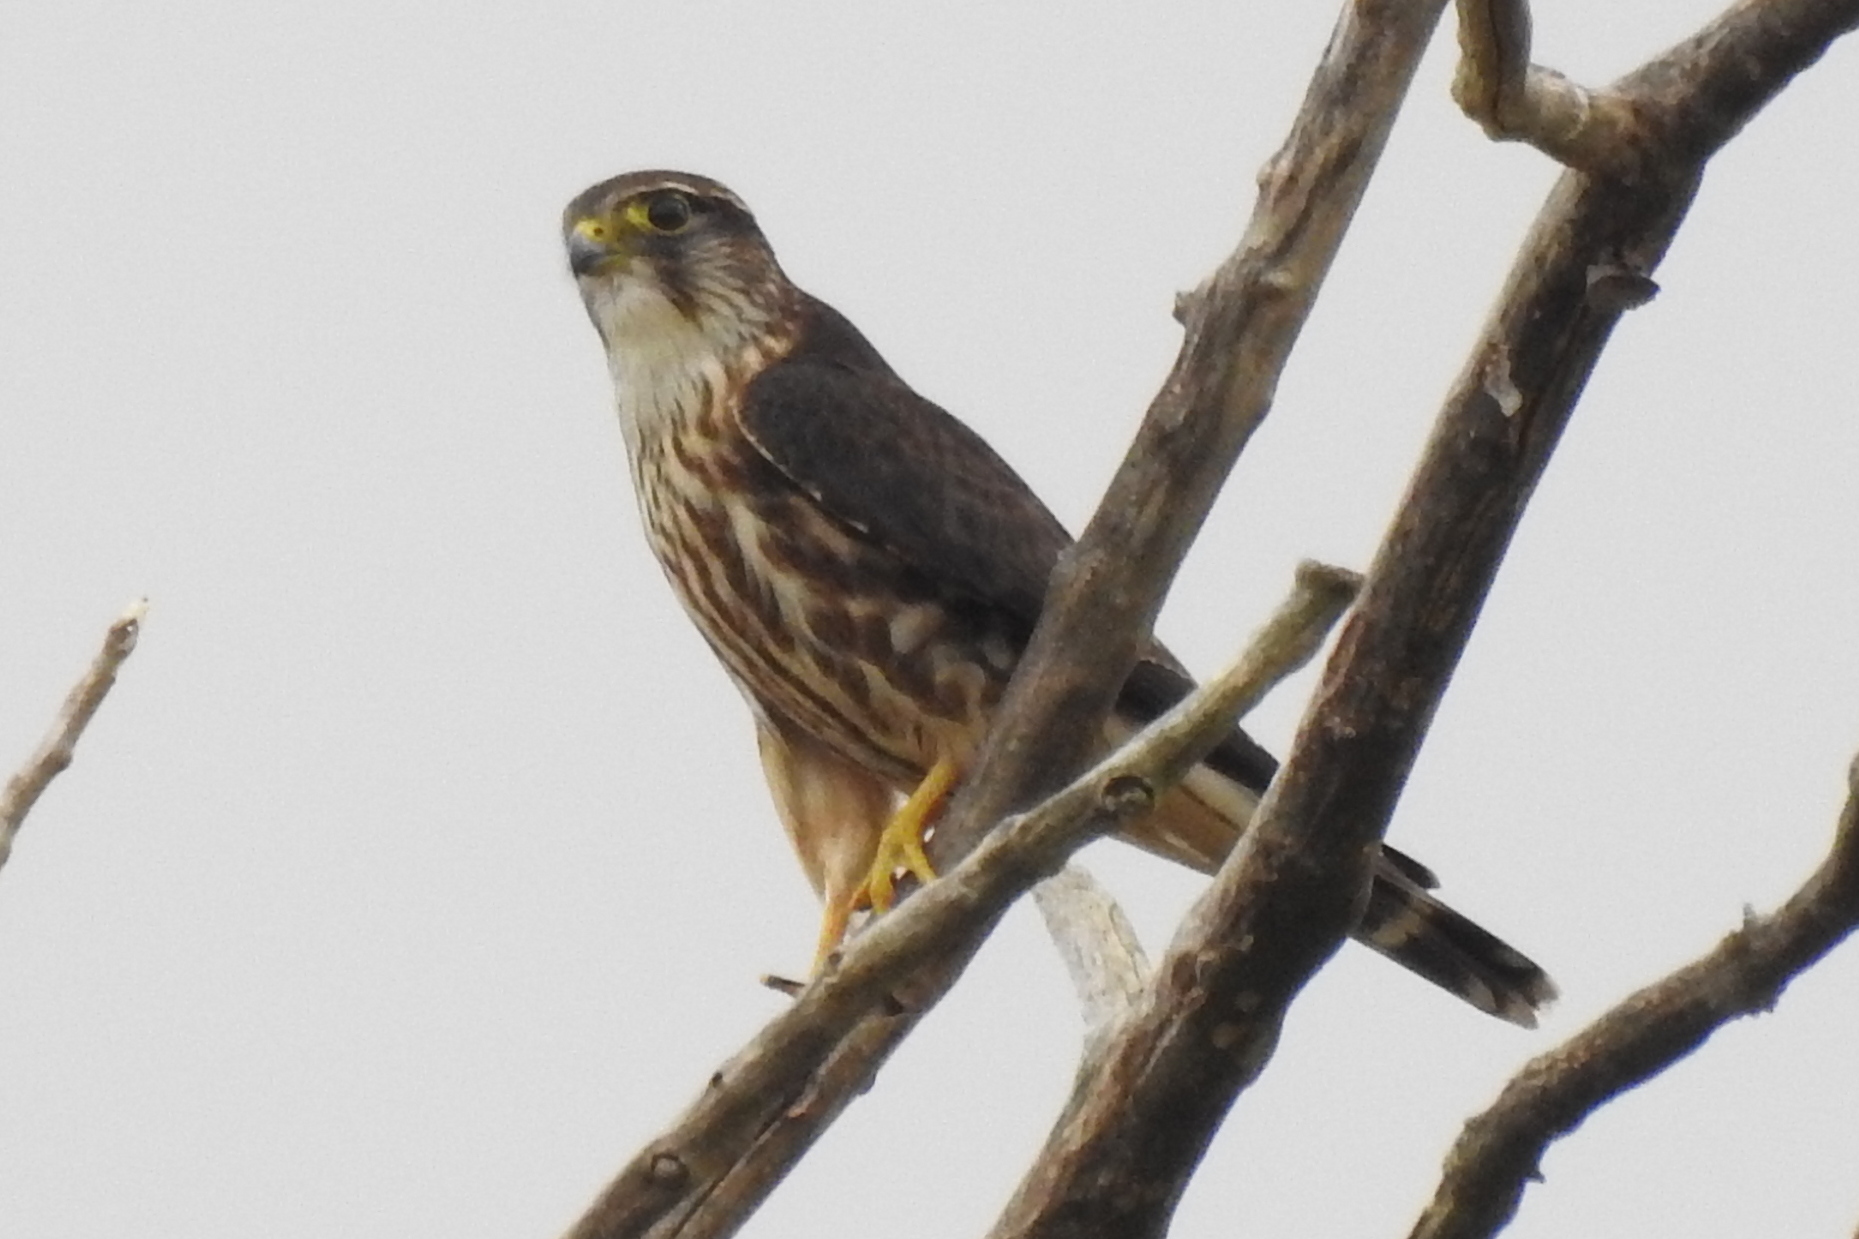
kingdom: Animalia
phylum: Chordata
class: Aves
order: Falconiformes
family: Falconidae
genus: Falco
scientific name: Falco columbarius
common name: Merlin
